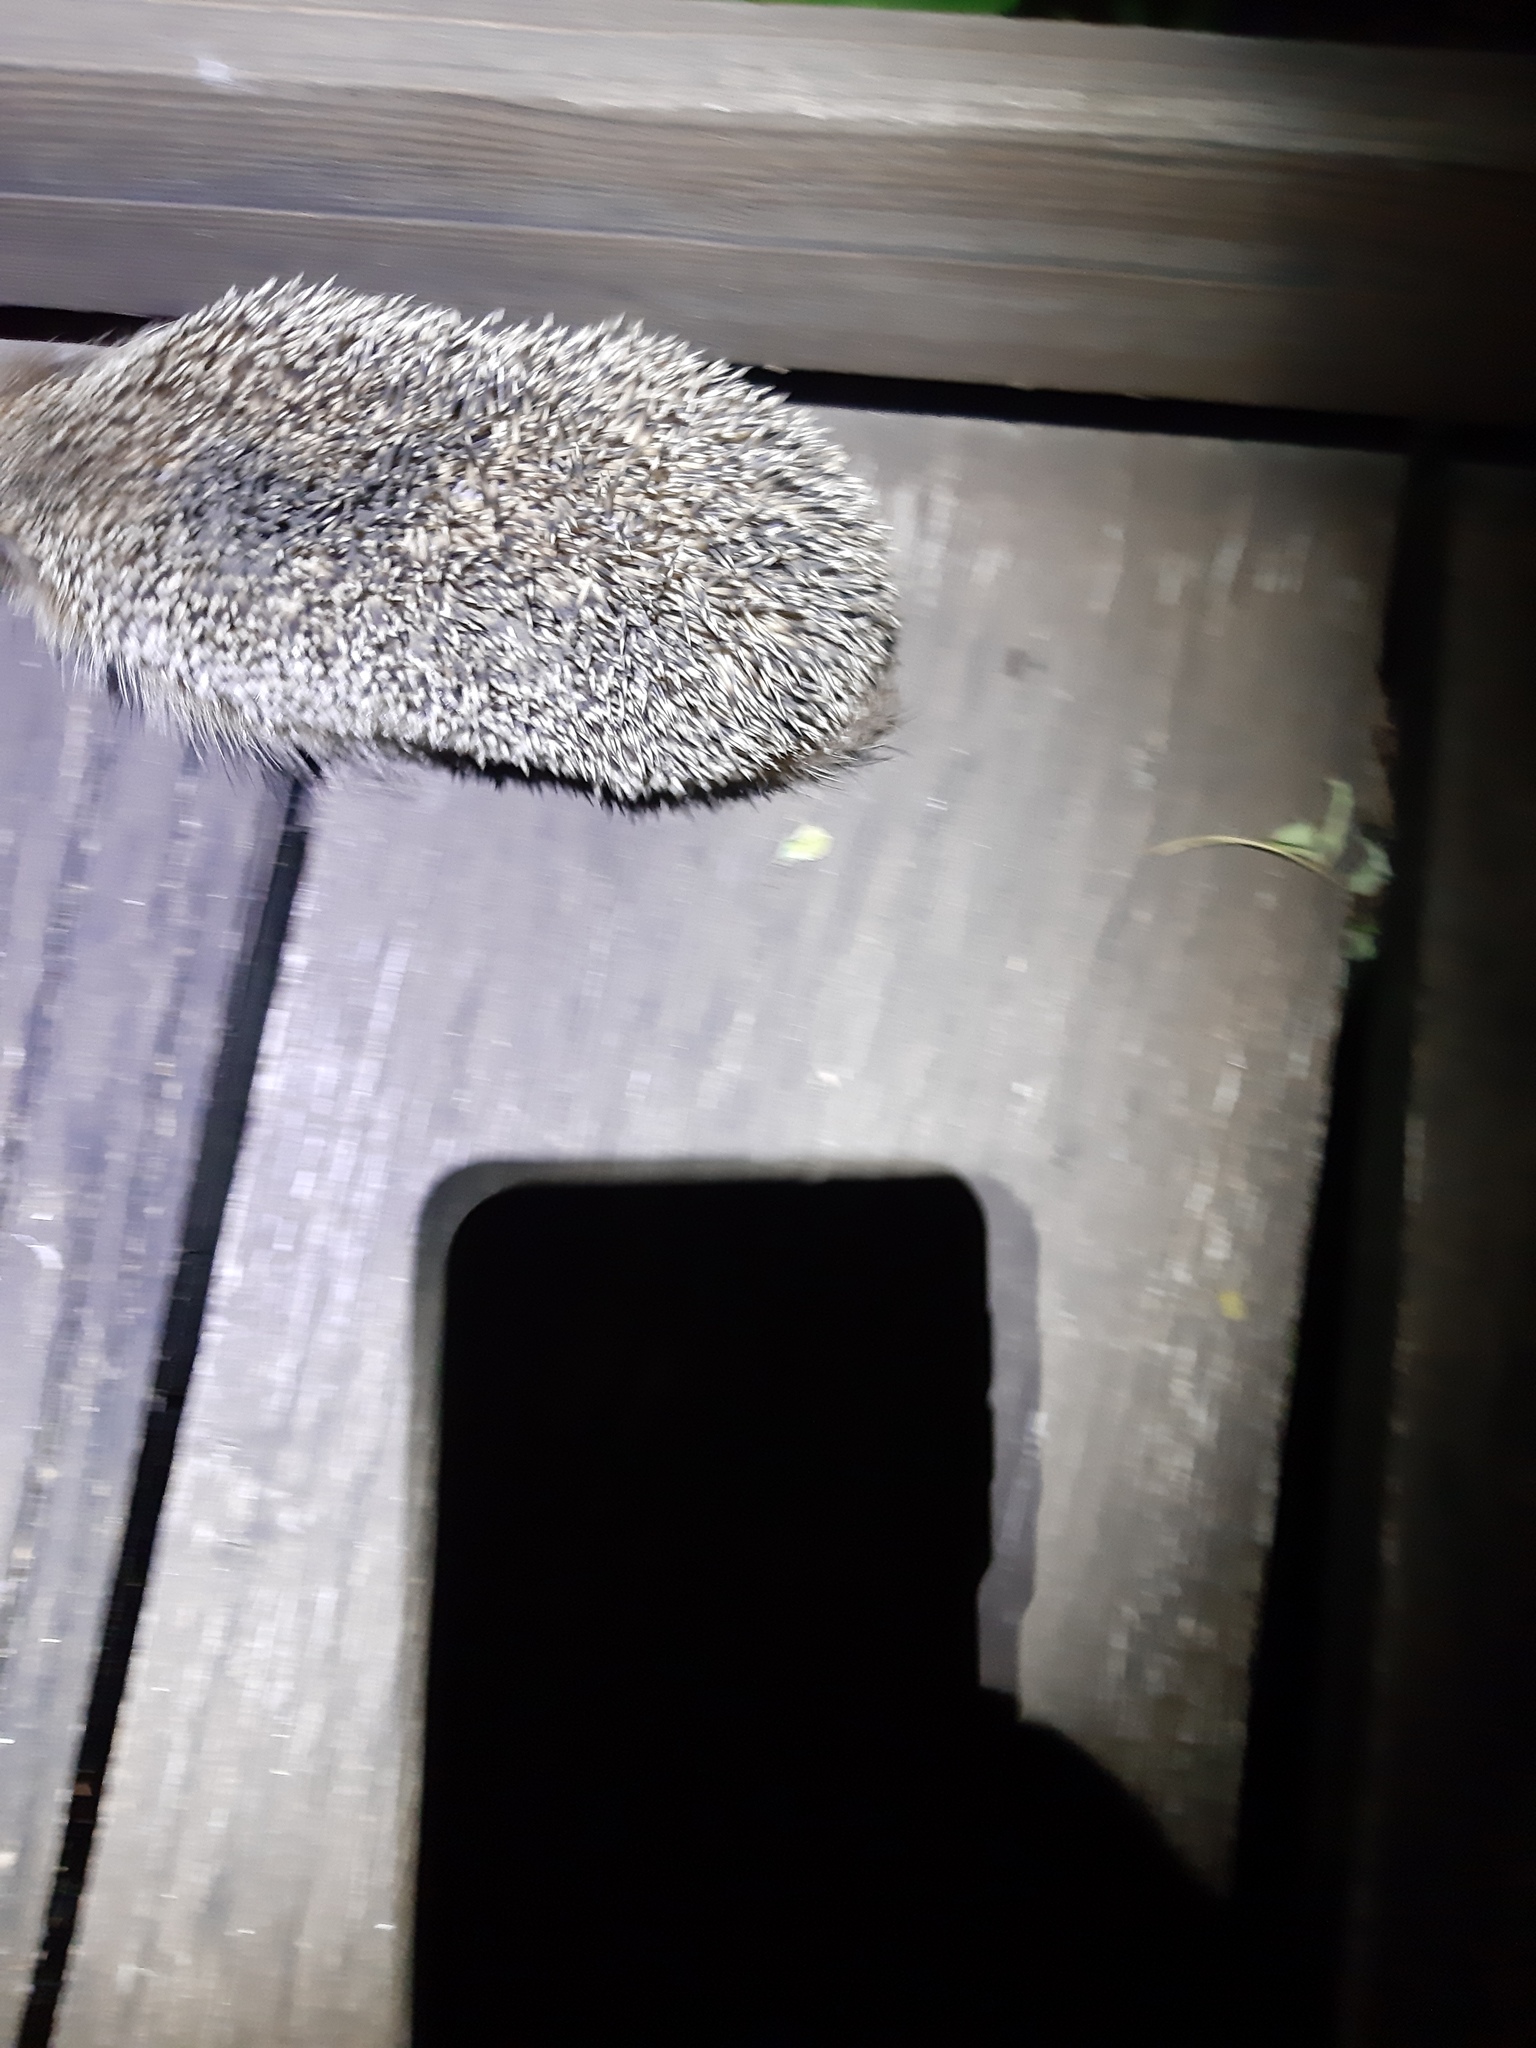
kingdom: Animalia
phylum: Chordata
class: Mammalia
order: Erinaceomorpha
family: Erinaceidae
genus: Erinaceus
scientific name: Erinaceus europaeus
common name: West european hedgehog
